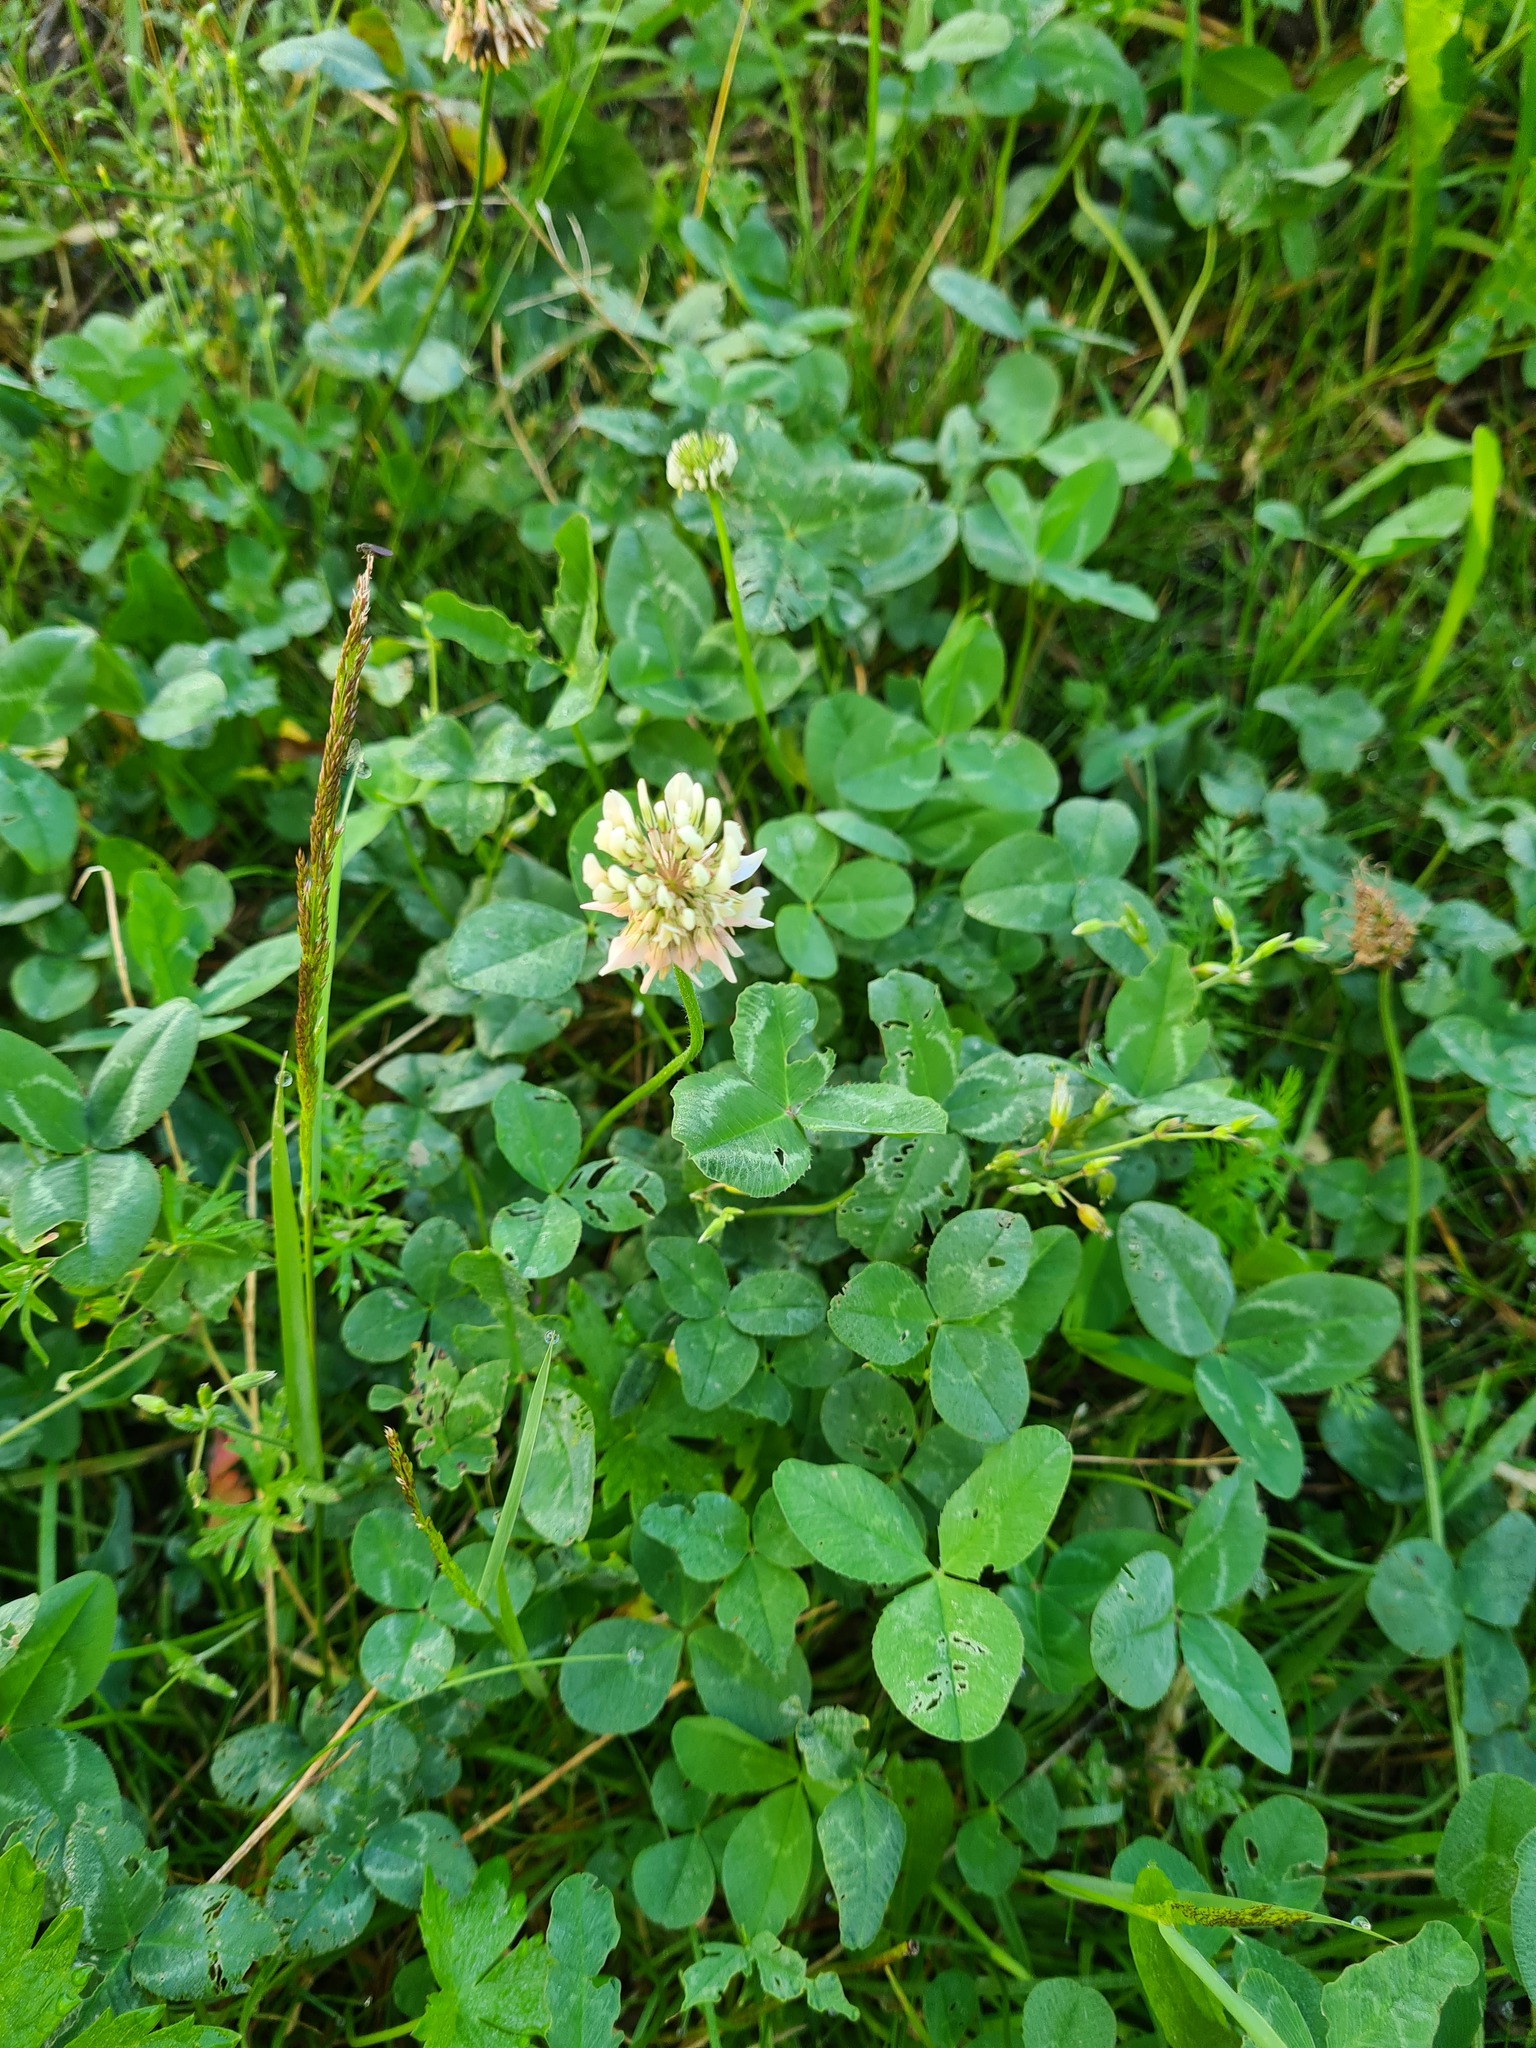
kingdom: Plantae
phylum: Tracheophyta
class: Magnoliopsida
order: Fabales
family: Fabaceae
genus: Trifolium
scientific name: Trifolium repens
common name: White clover
